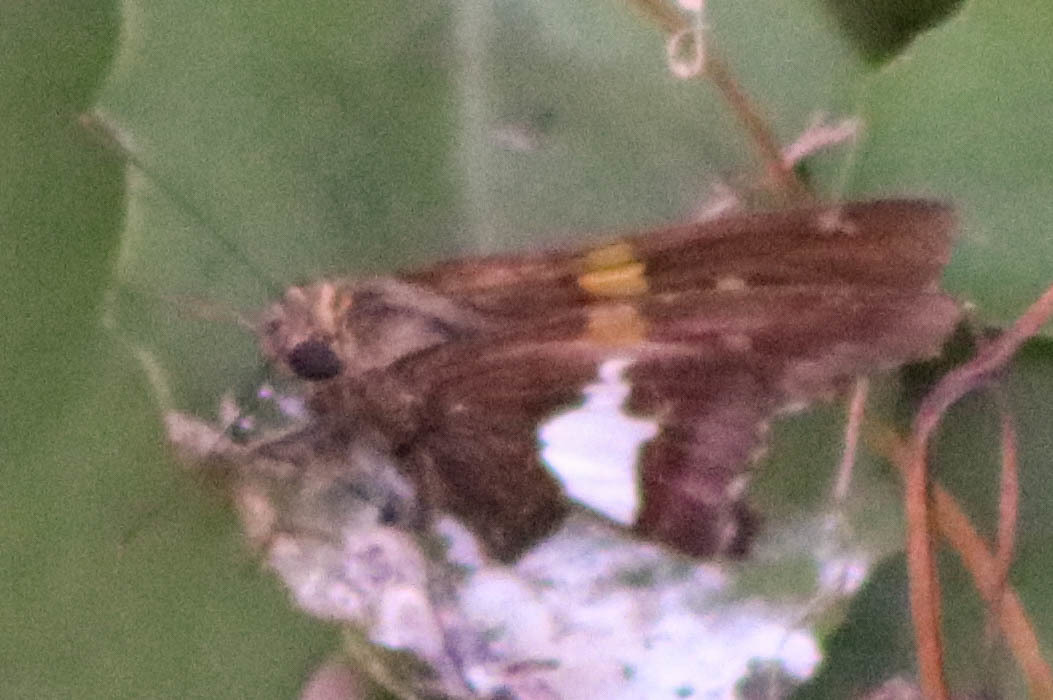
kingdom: Animalia
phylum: Arthropoda
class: Insecta
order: Lepidoptera
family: Hesperiidae
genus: Epargyreus
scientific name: Epargyreus clarus
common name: Silver-spotted skipper
